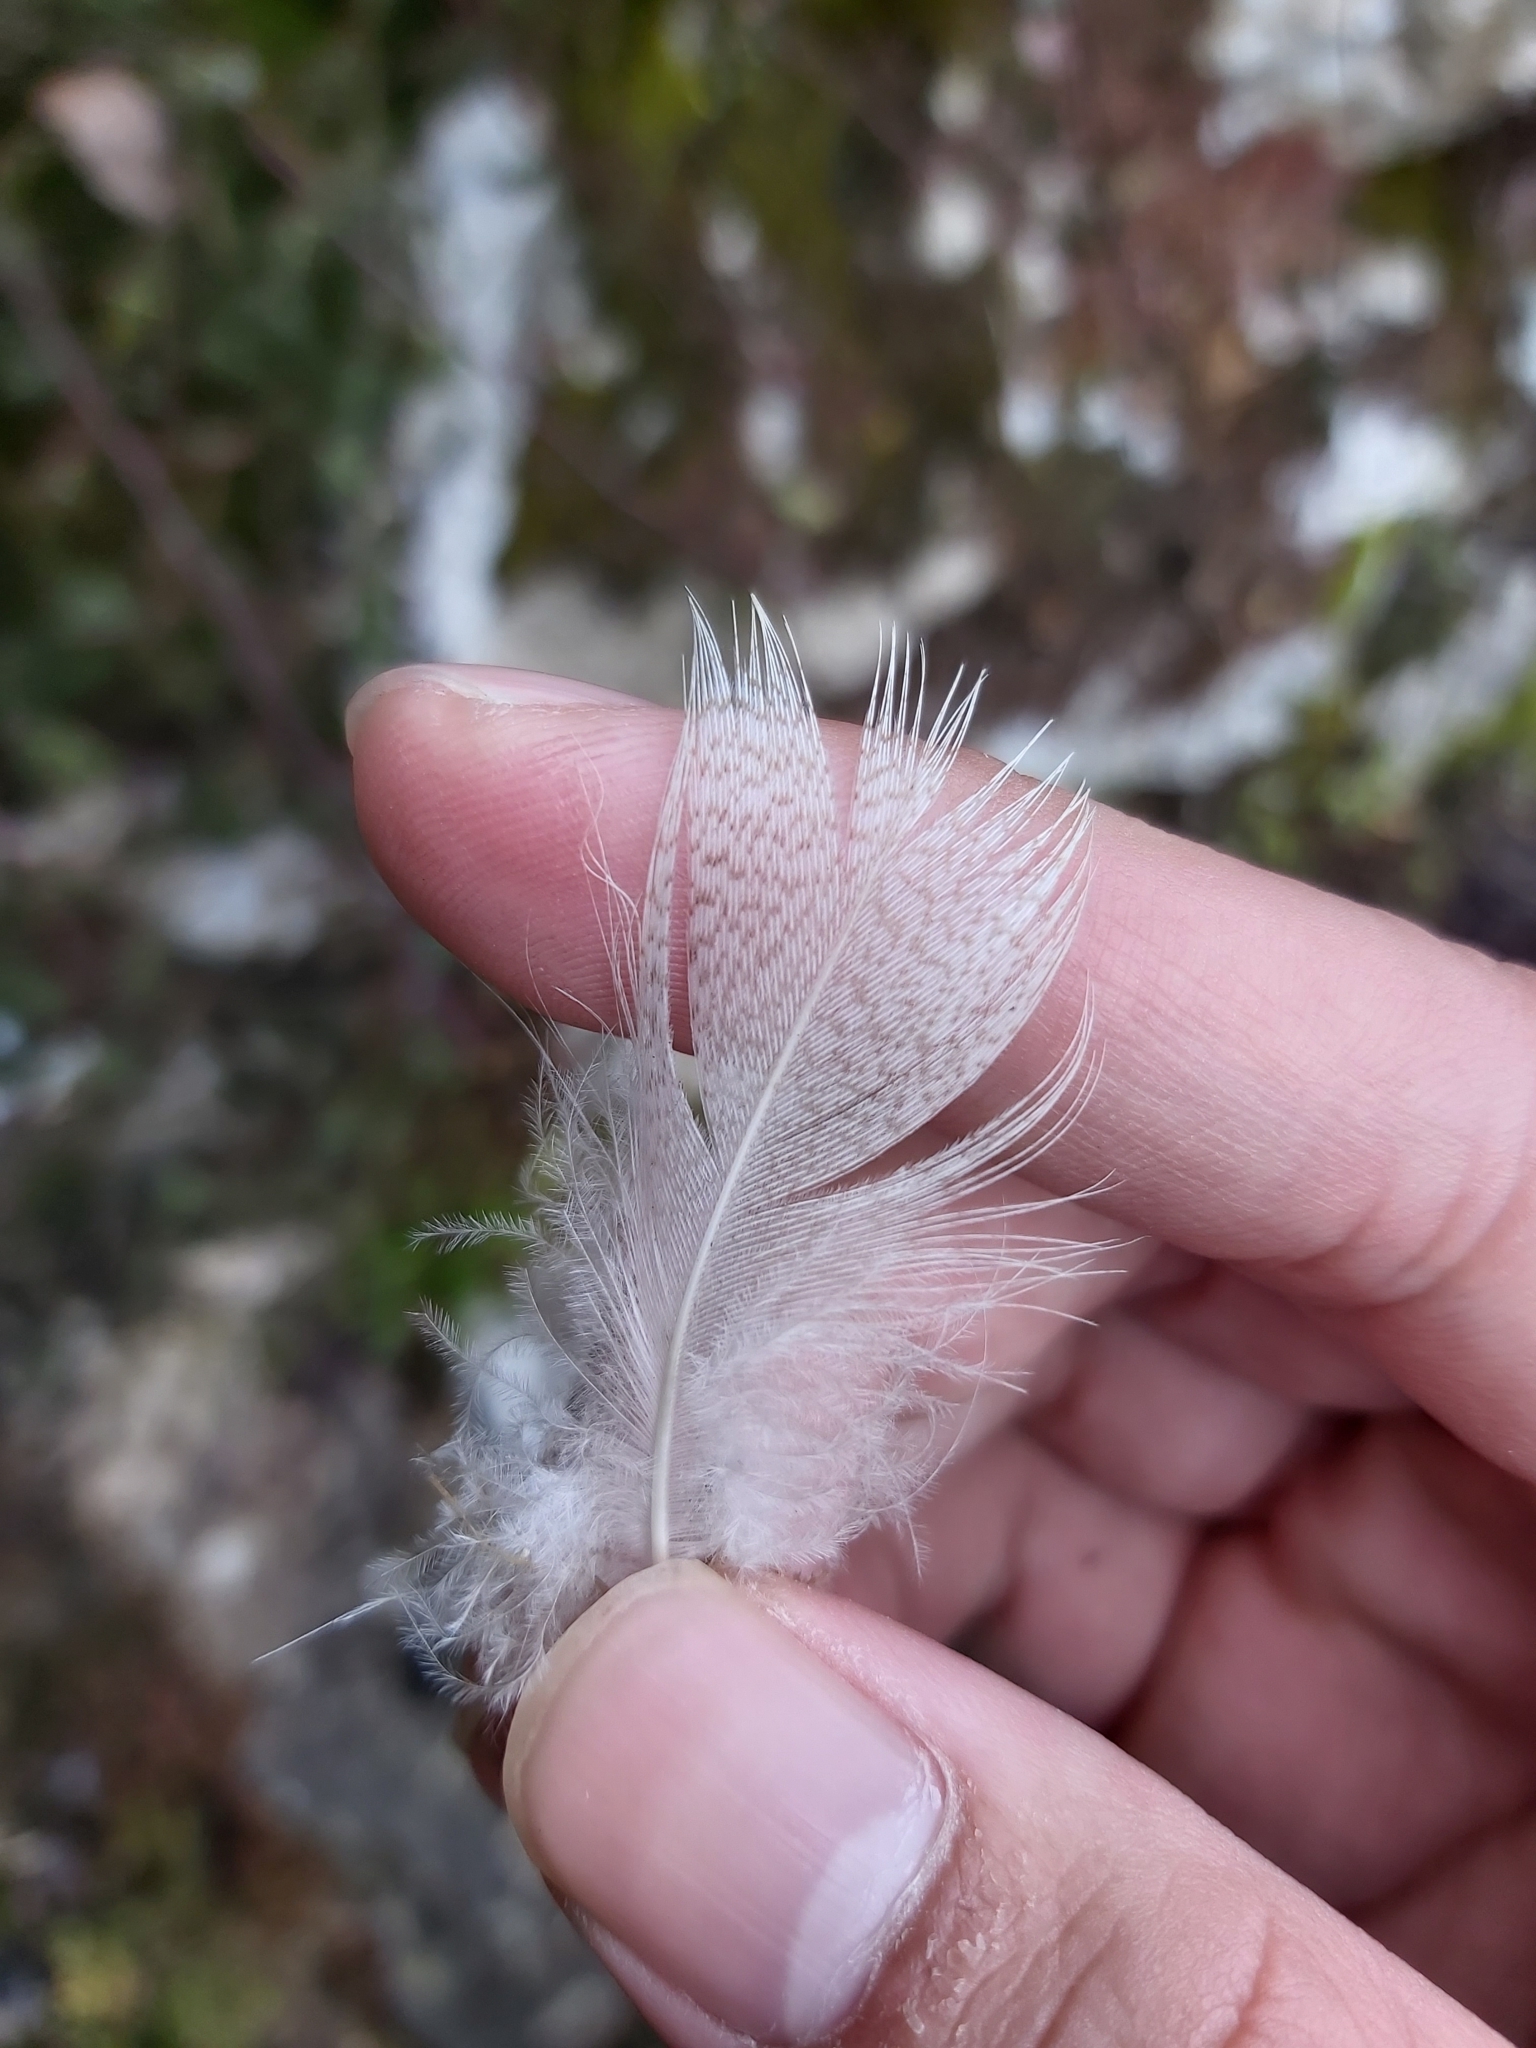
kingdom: Animalia
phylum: Chordata
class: Aves
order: Anseriformes
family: Anatidae
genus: Anas
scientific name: Anas platyrhynchos
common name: Mallard
